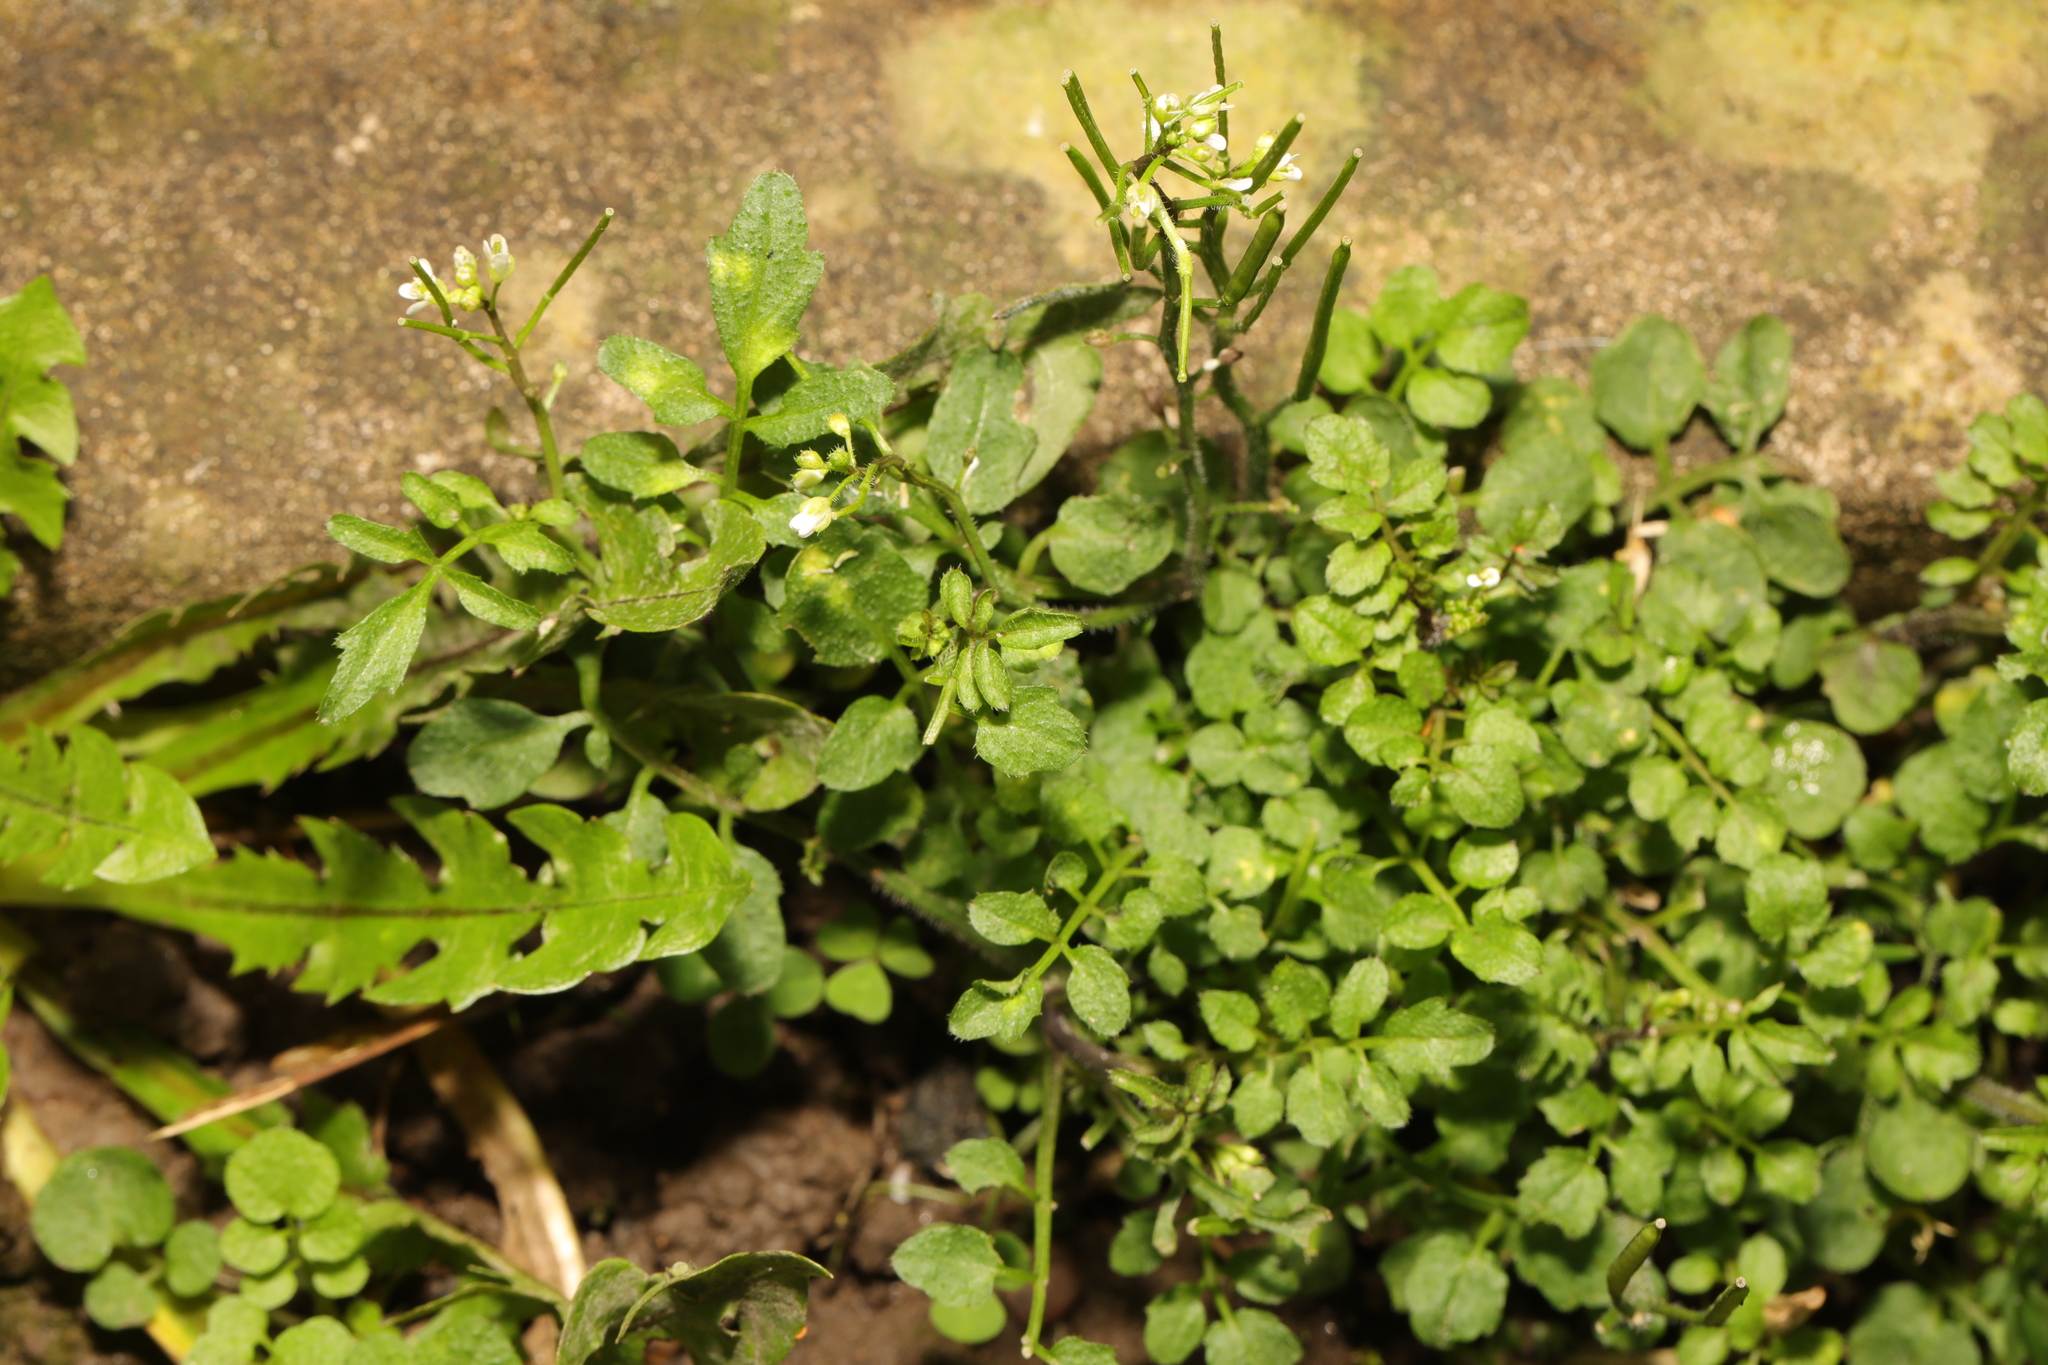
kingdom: Plantae
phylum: Tracheophyta
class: Magnoliopsida
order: Brassicales
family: Brassicaceae
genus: Cardamine
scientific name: Cardamine flexuosa
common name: Woodland bittercress
